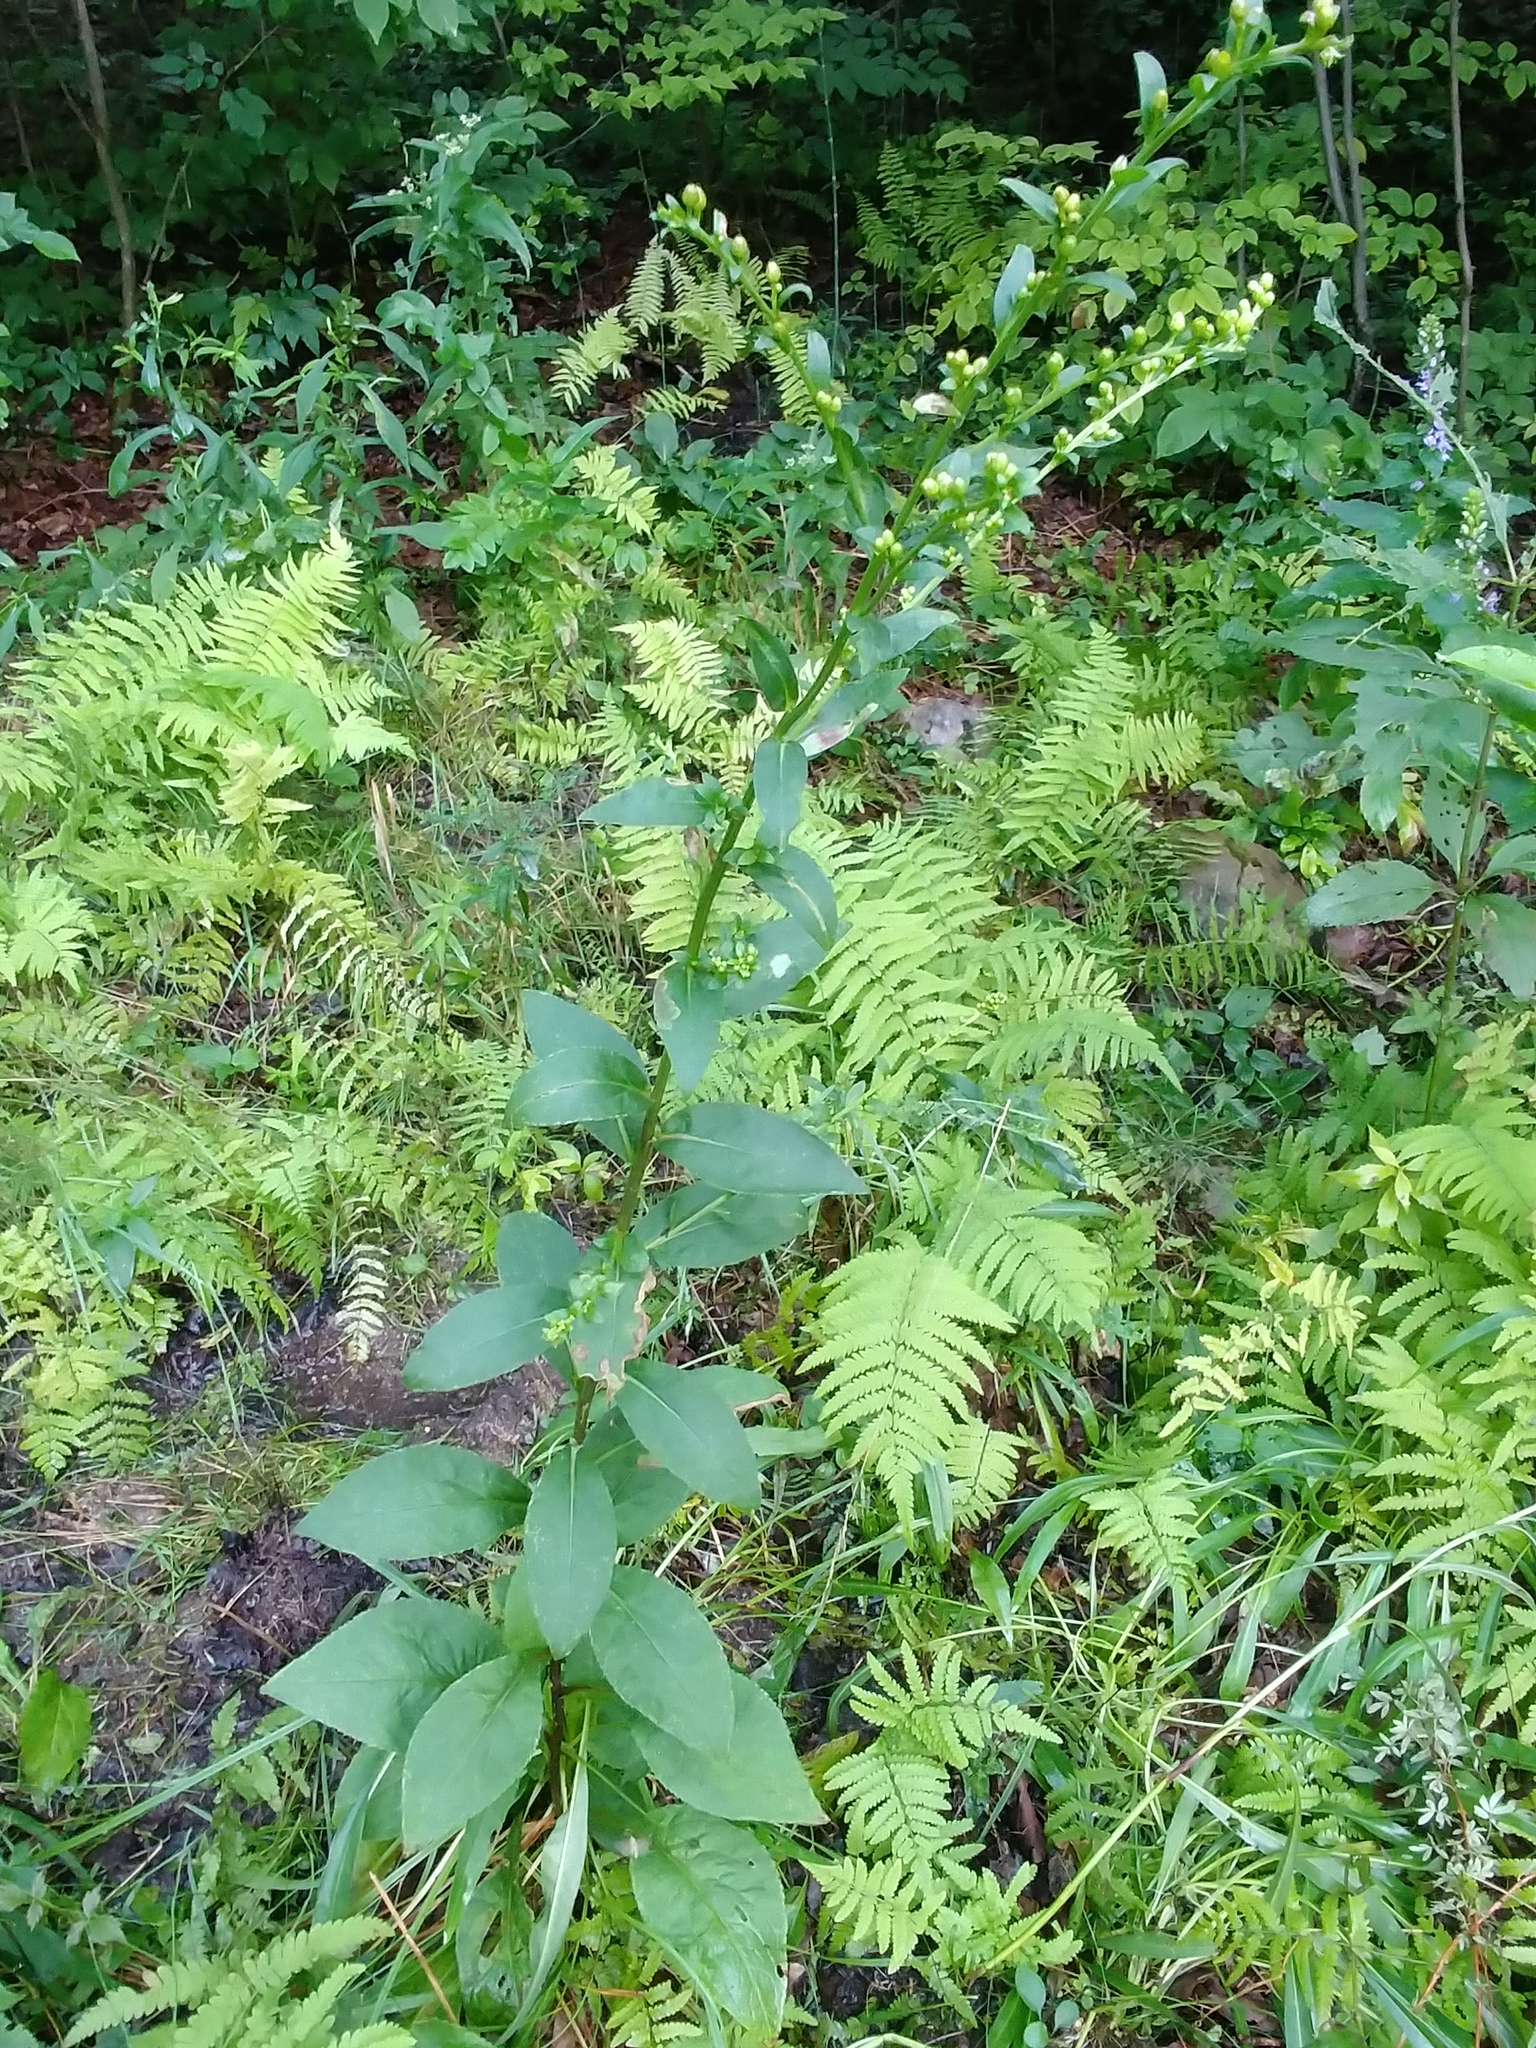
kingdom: Plantae
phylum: Tracheophyta
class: Magnoliopsida
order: Asterales
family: Asteraceae
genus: Solidago
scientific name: Solidago patula
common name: Rough-leaf goldenrod
